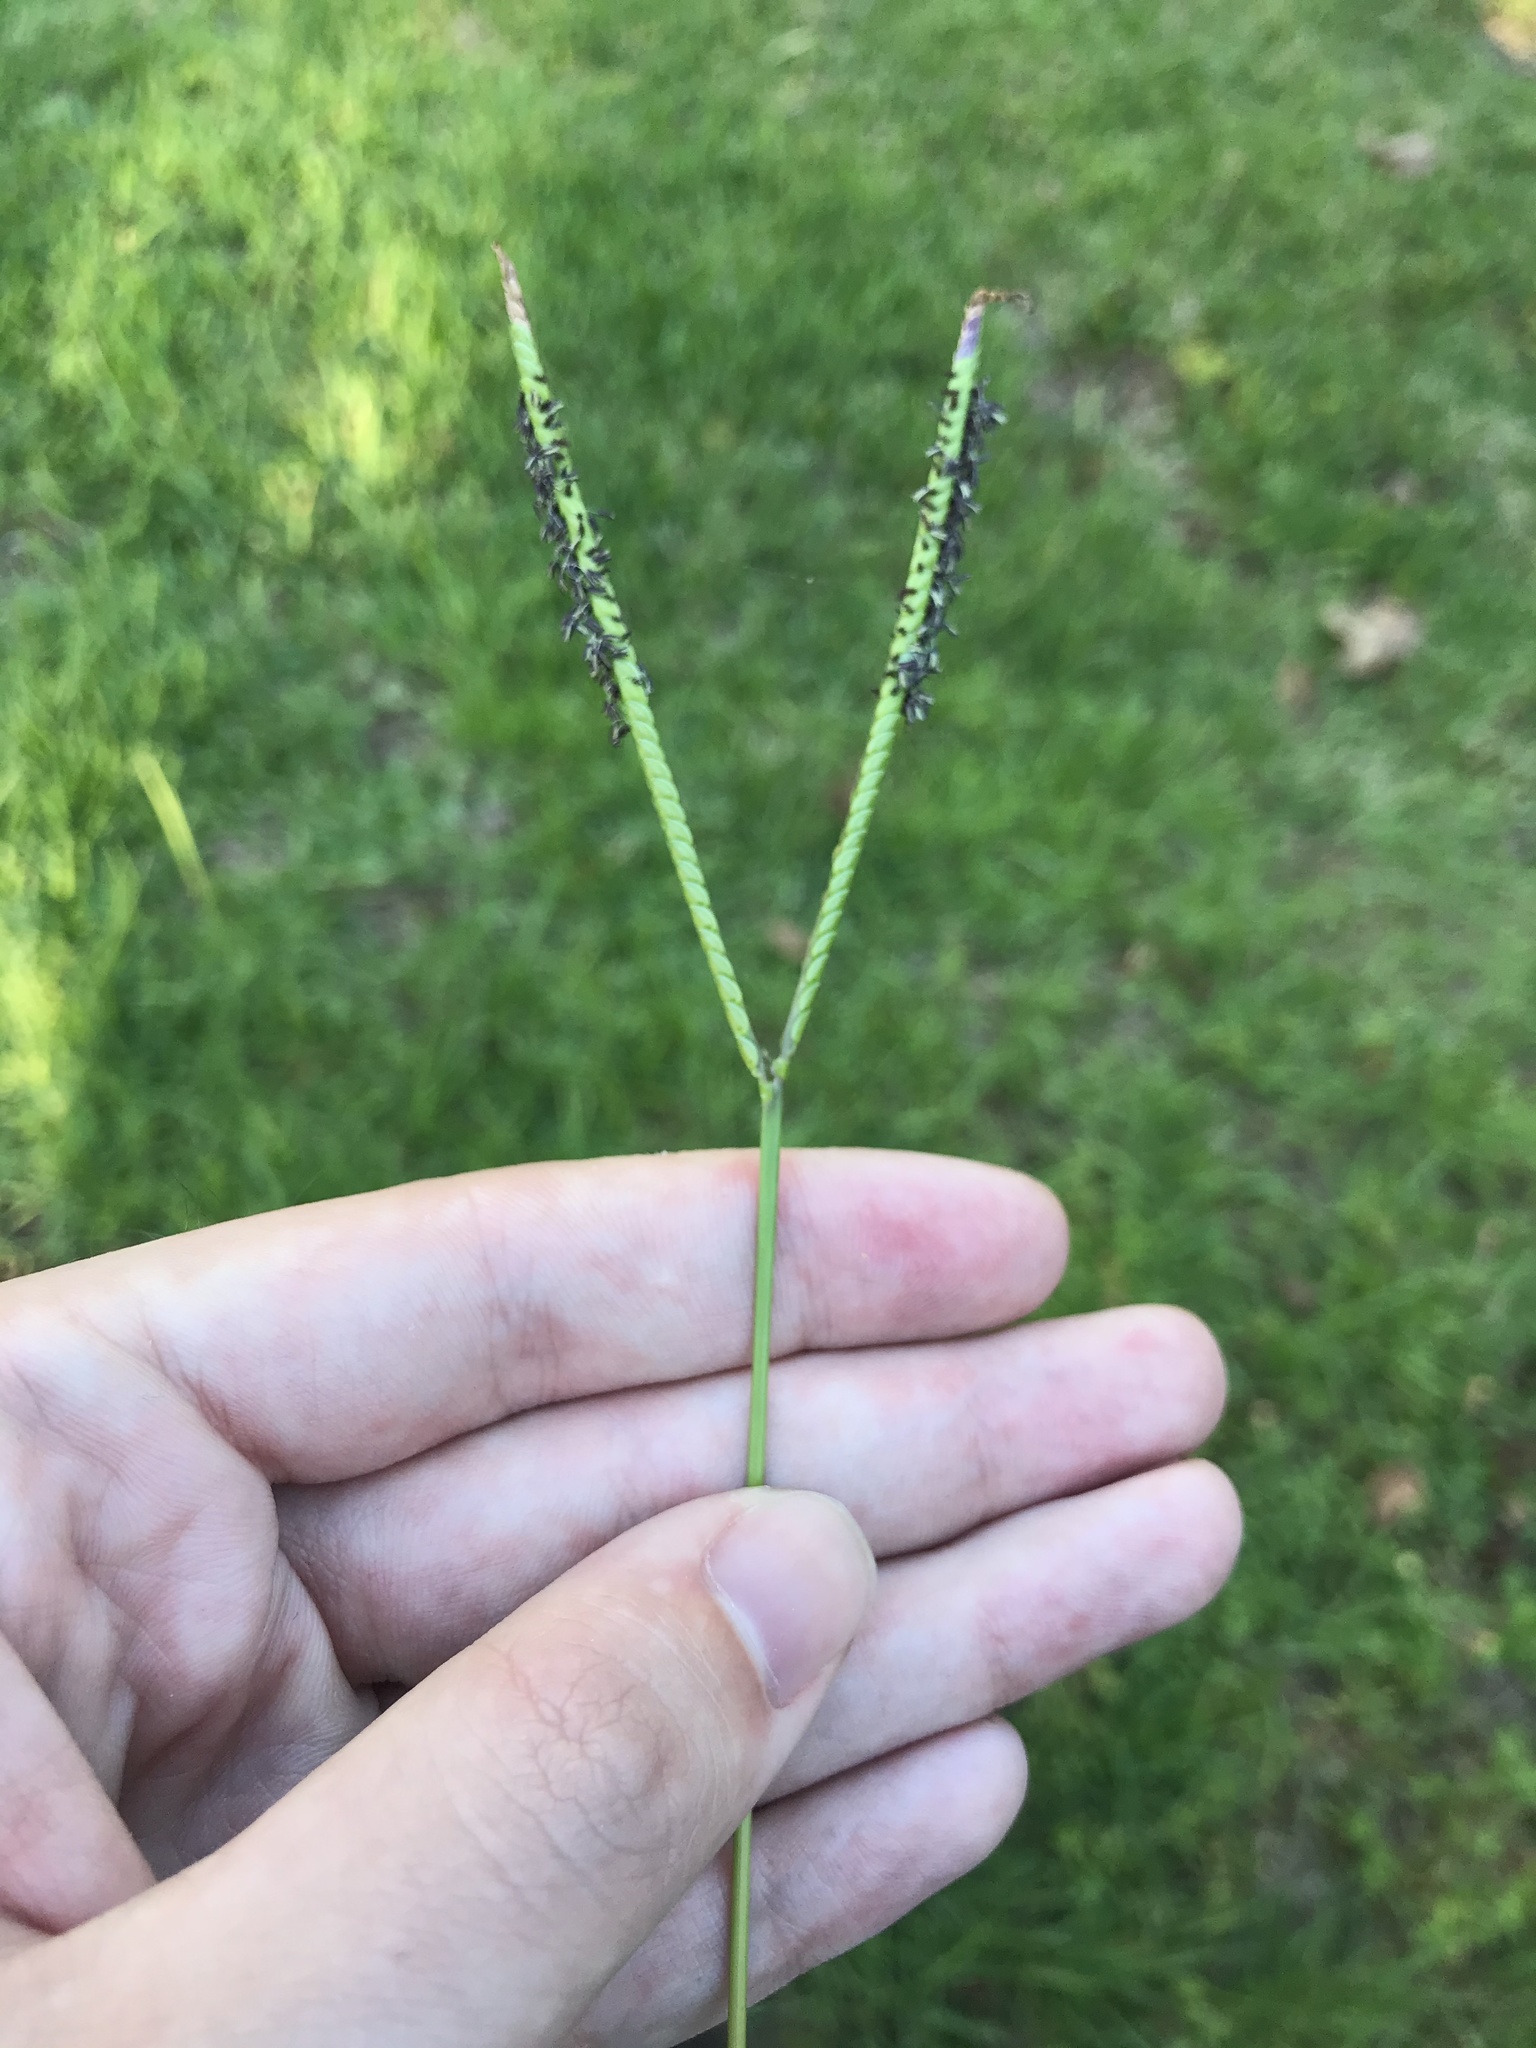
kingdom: Plantae
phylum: Tracheophyta
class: Liliopsida
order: Poales
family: Poaceae
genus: Paspalum
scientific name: Paspalum notatum
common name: Bahiagrass
